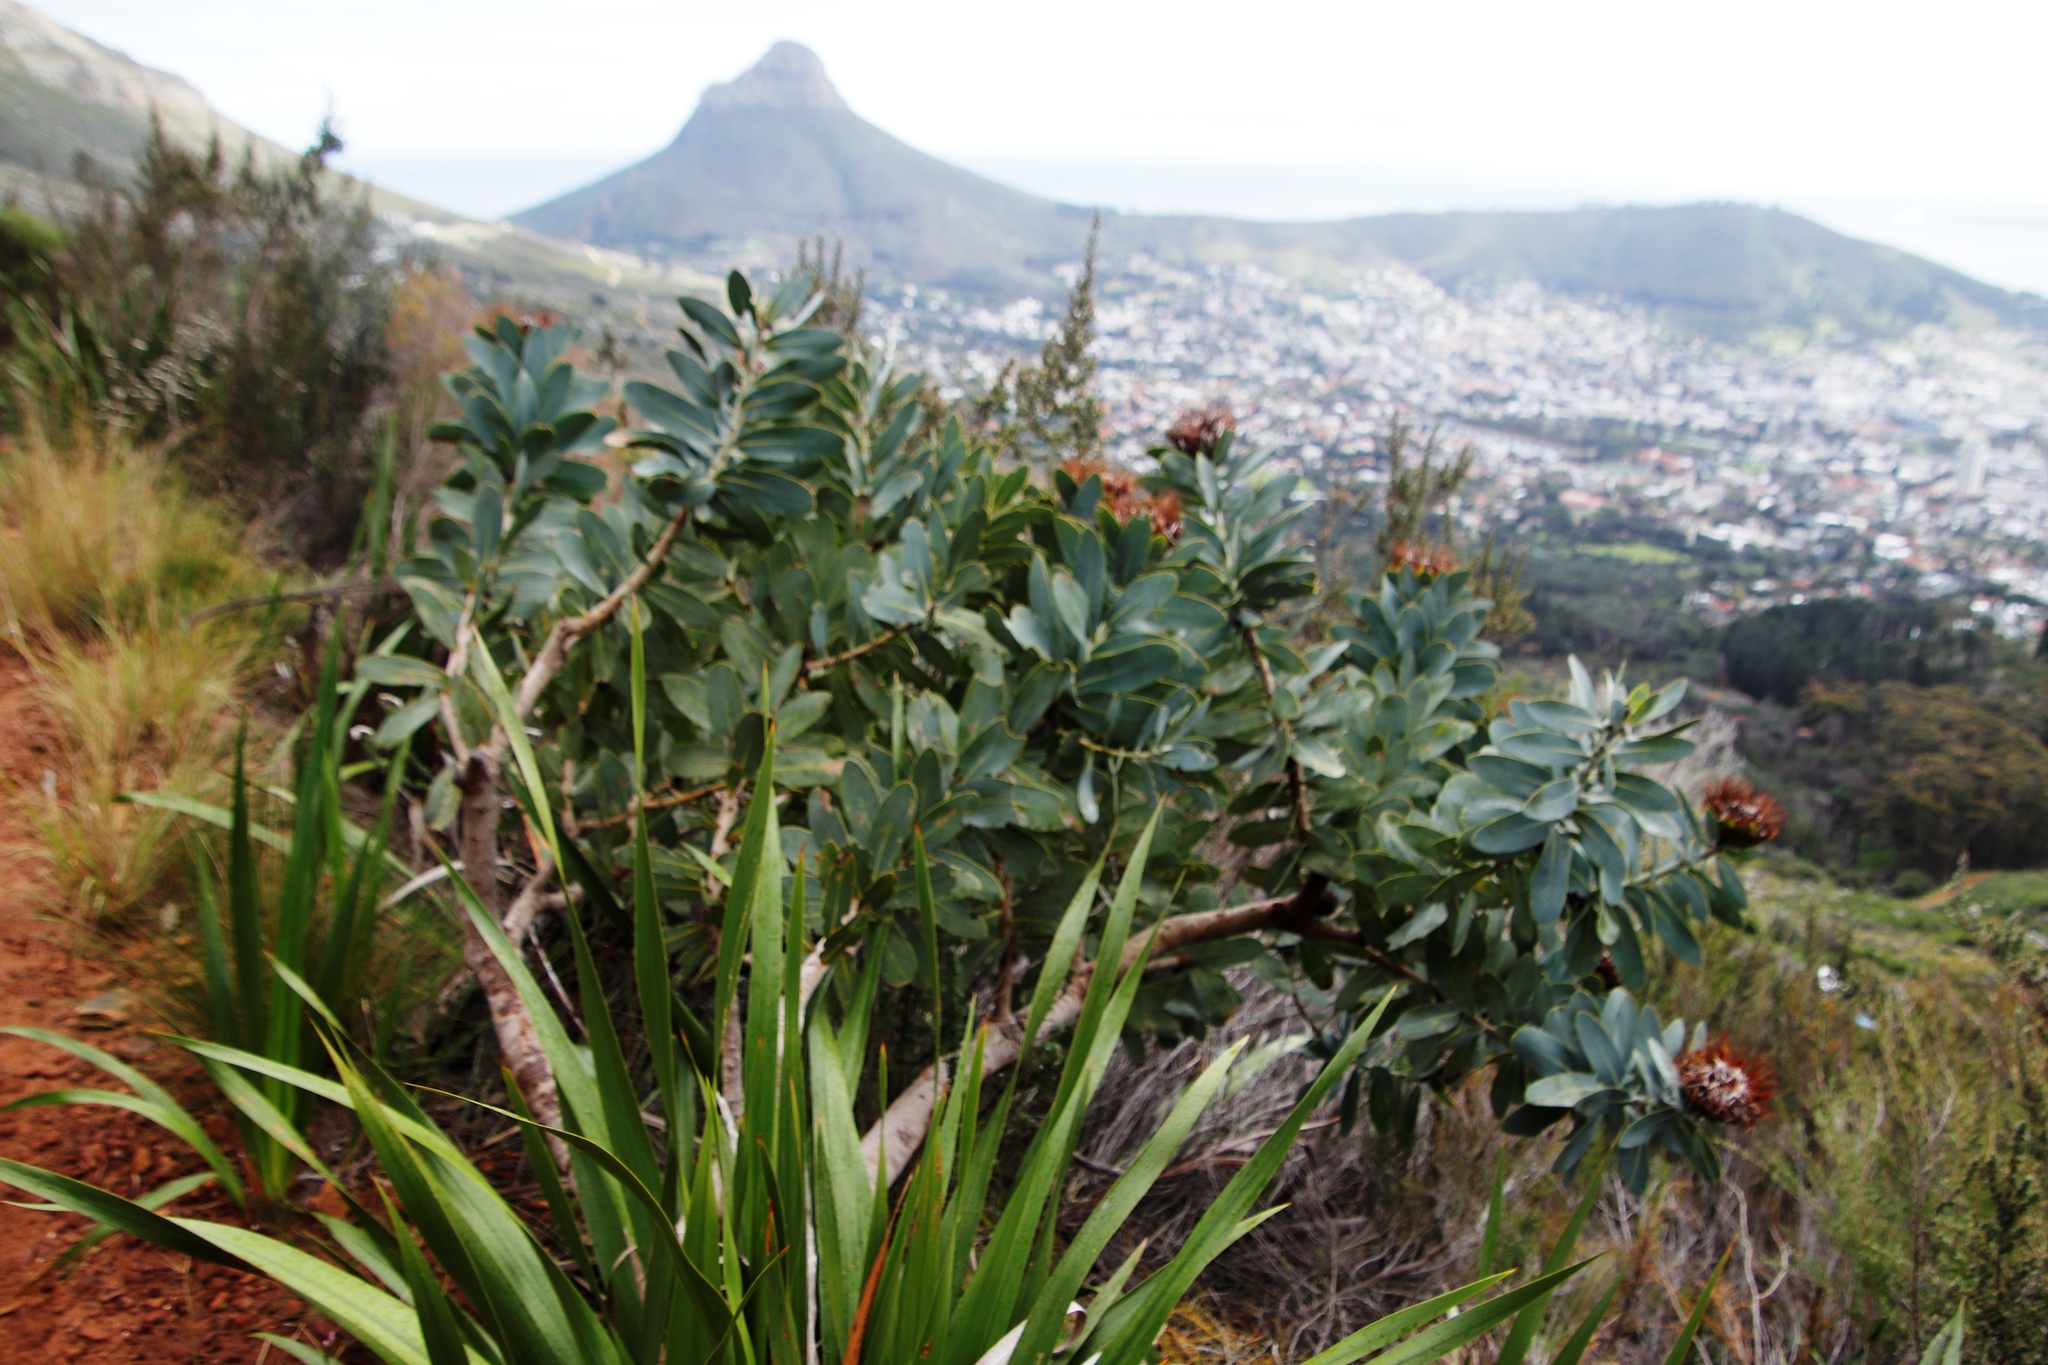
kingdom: Plantae
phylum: Tracheophyta
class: Magnoliopsida
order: Proteales
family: Proteaceae
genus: Protea
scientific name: Protea nitida
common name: Tree protea
